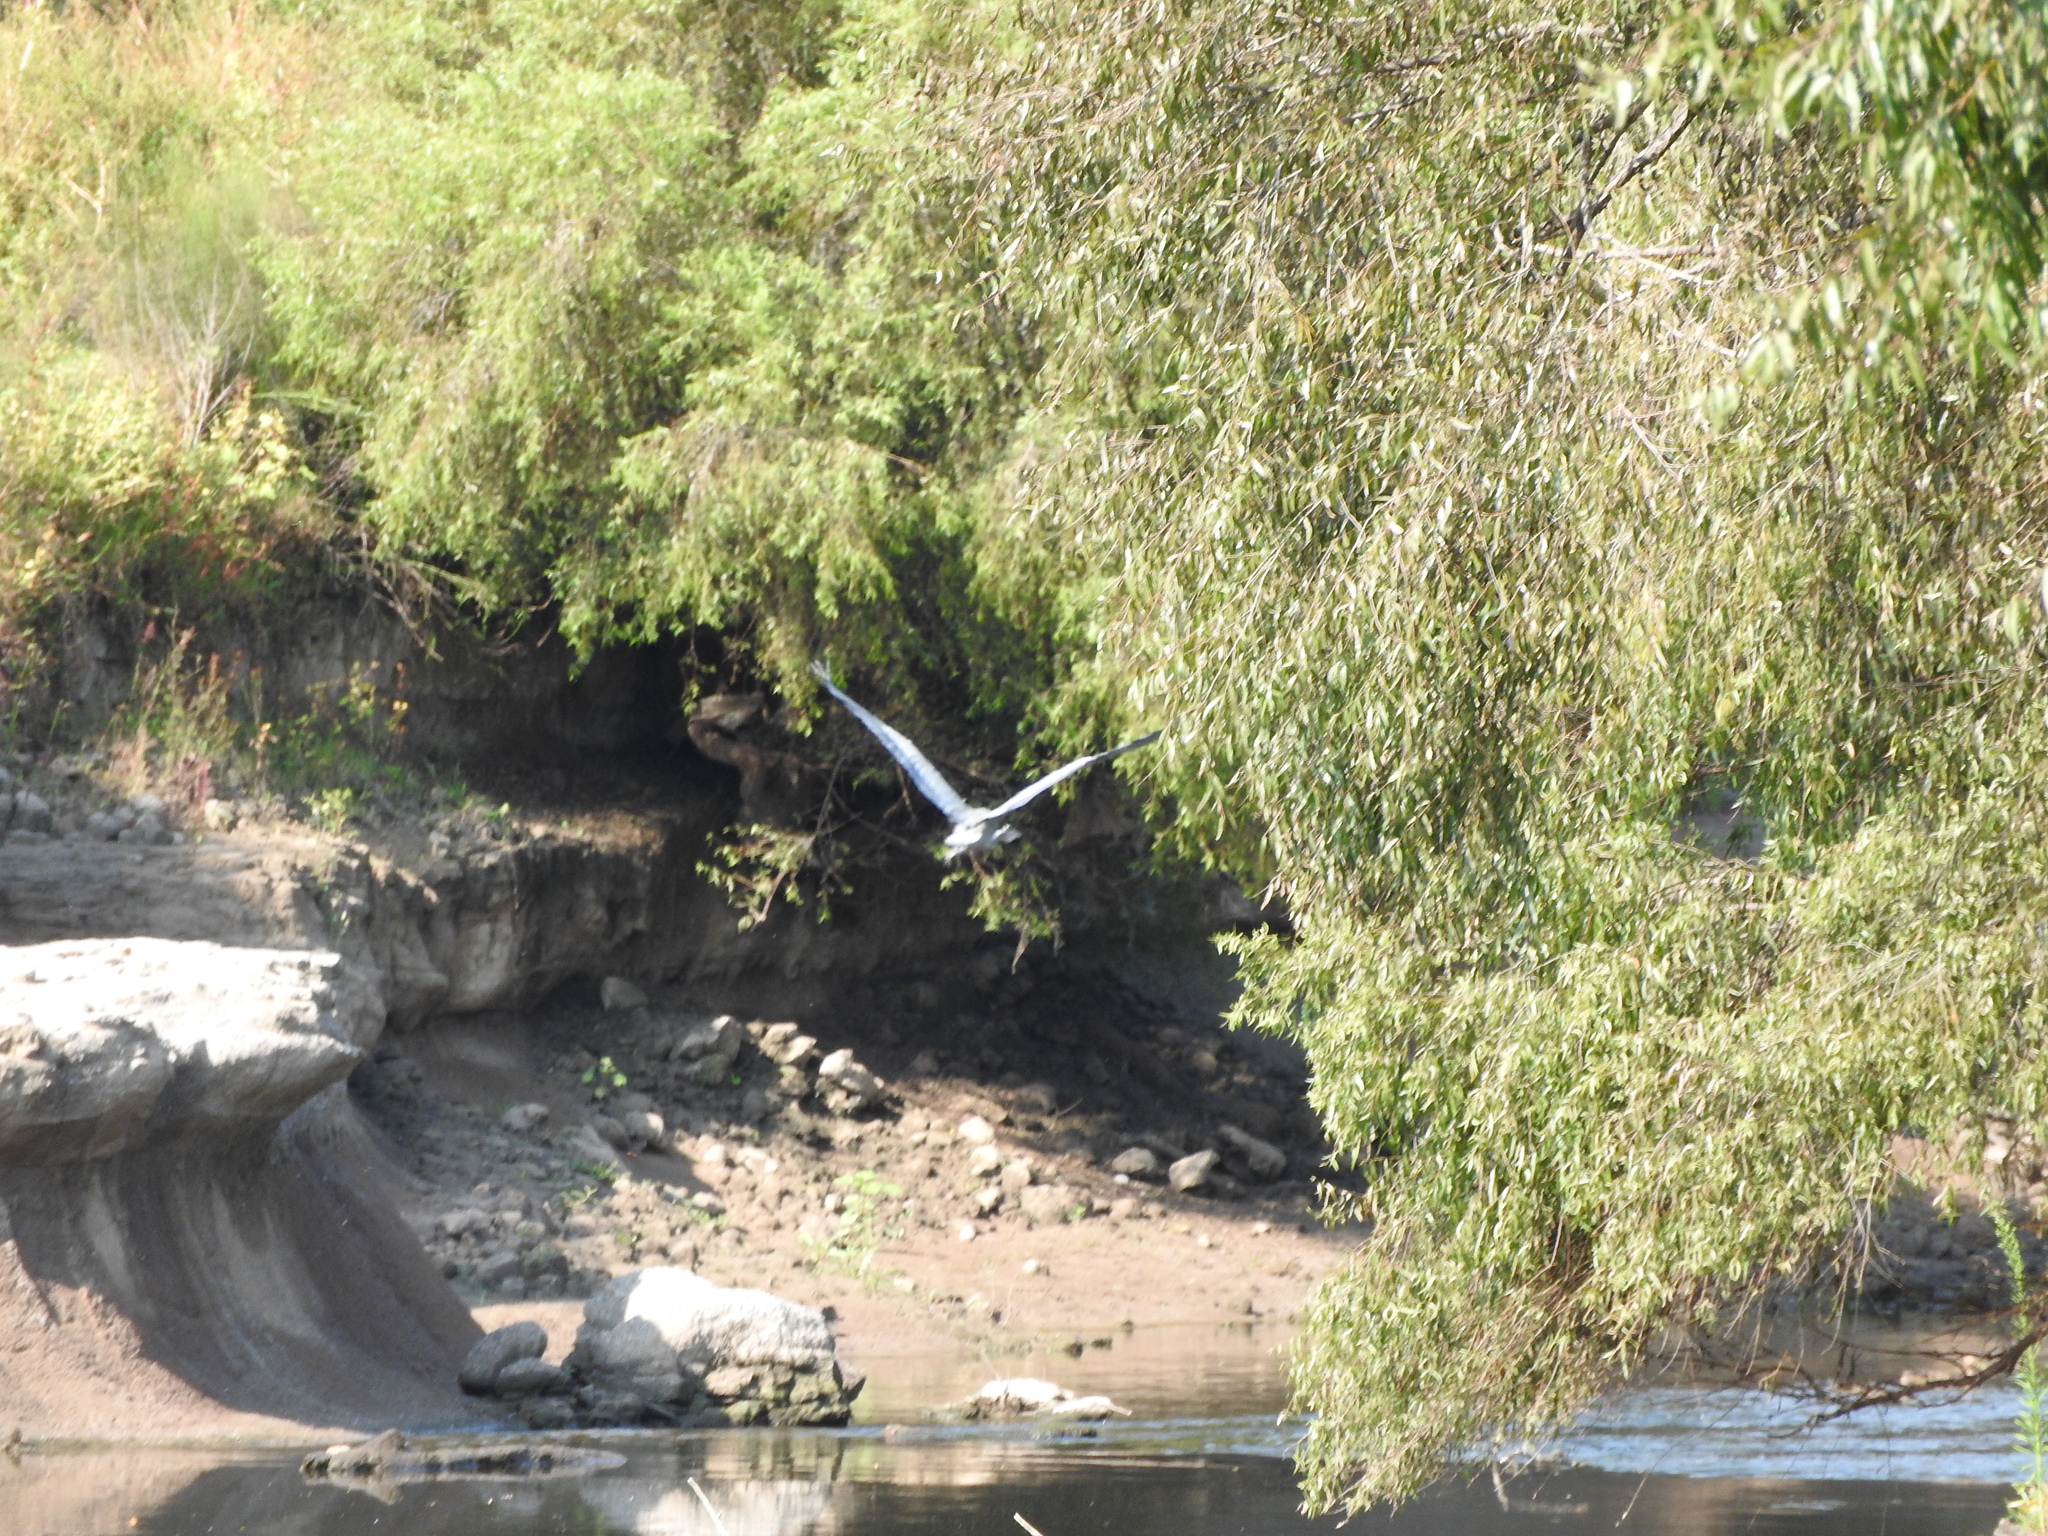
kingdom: Animalia
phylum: Chordata
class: Aves
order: Pelecaniformes
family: Ardeidae
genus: Ardea
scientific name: Ardea herodias
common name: Great blue heron
